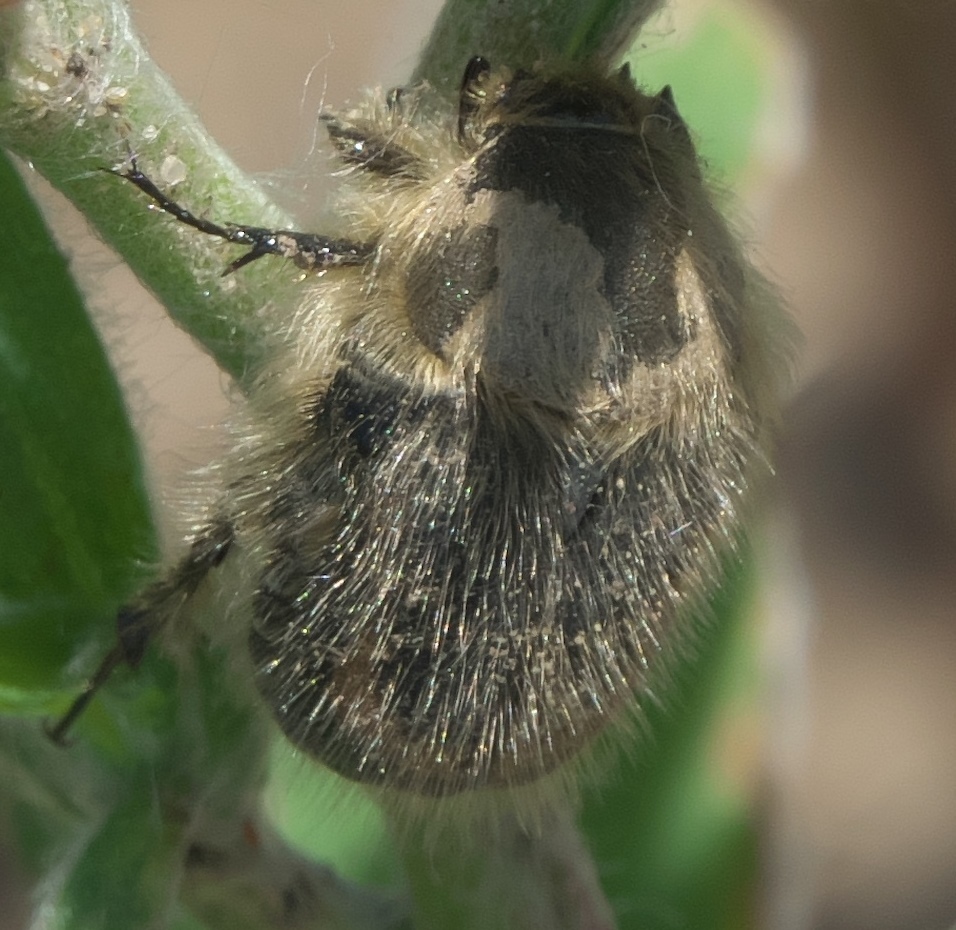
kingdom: Animalia
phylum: Arthropoda
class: Insecta
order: Coleoptera
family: Scarabaeidae
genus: Euphoria
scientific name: Euphoria pilipennis
